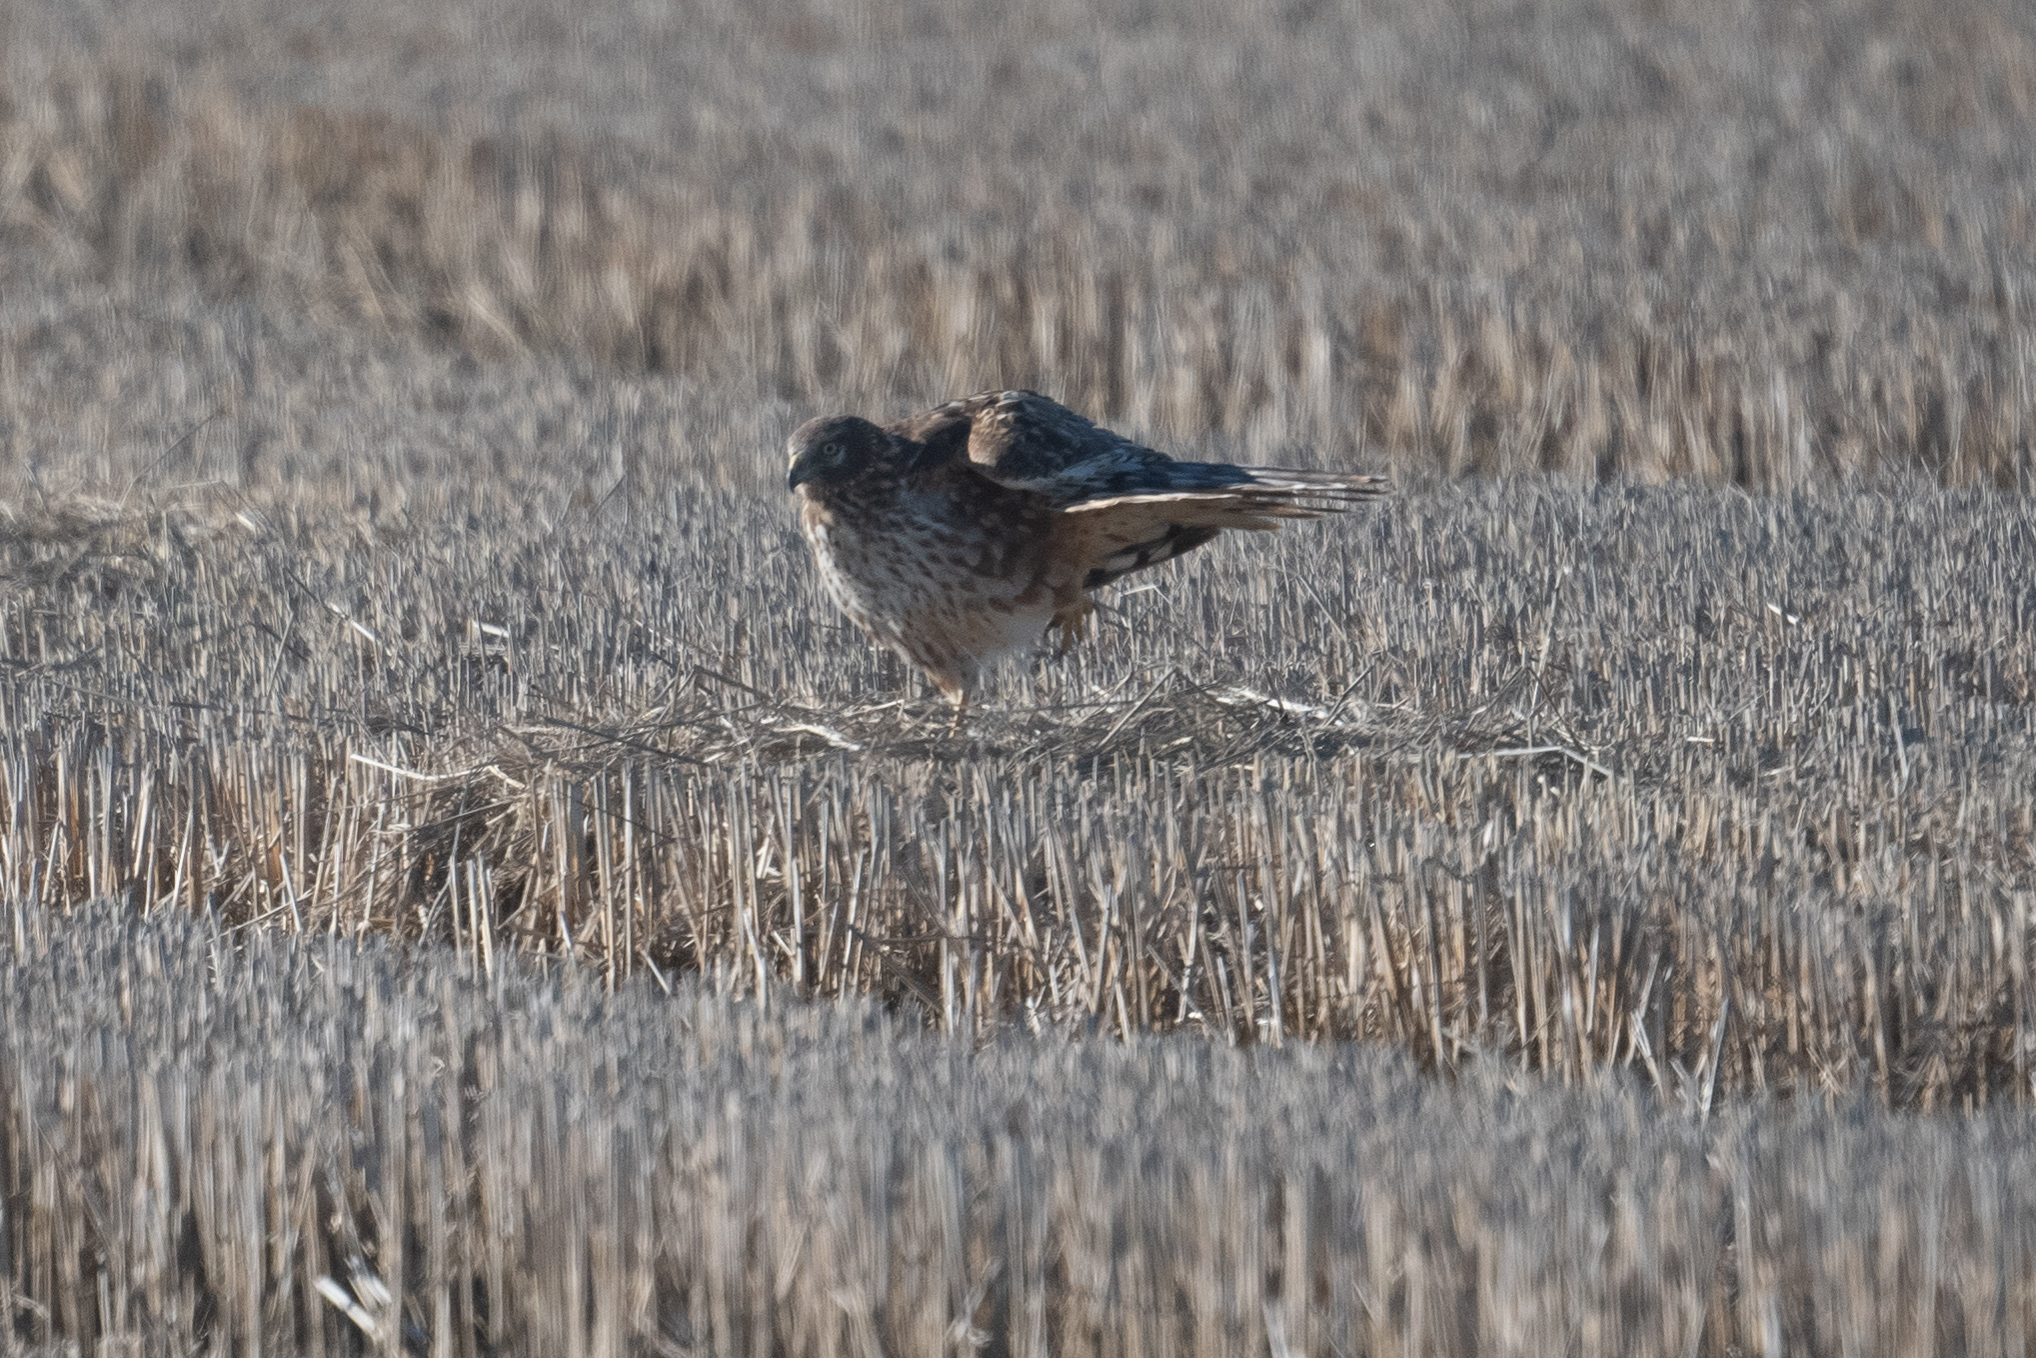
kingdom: Animalia
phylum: Chordata
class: Aves
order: Accipitriformes
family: Accipitridae
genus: Circus
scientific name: Circus cyaneus
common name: Hen harrier
